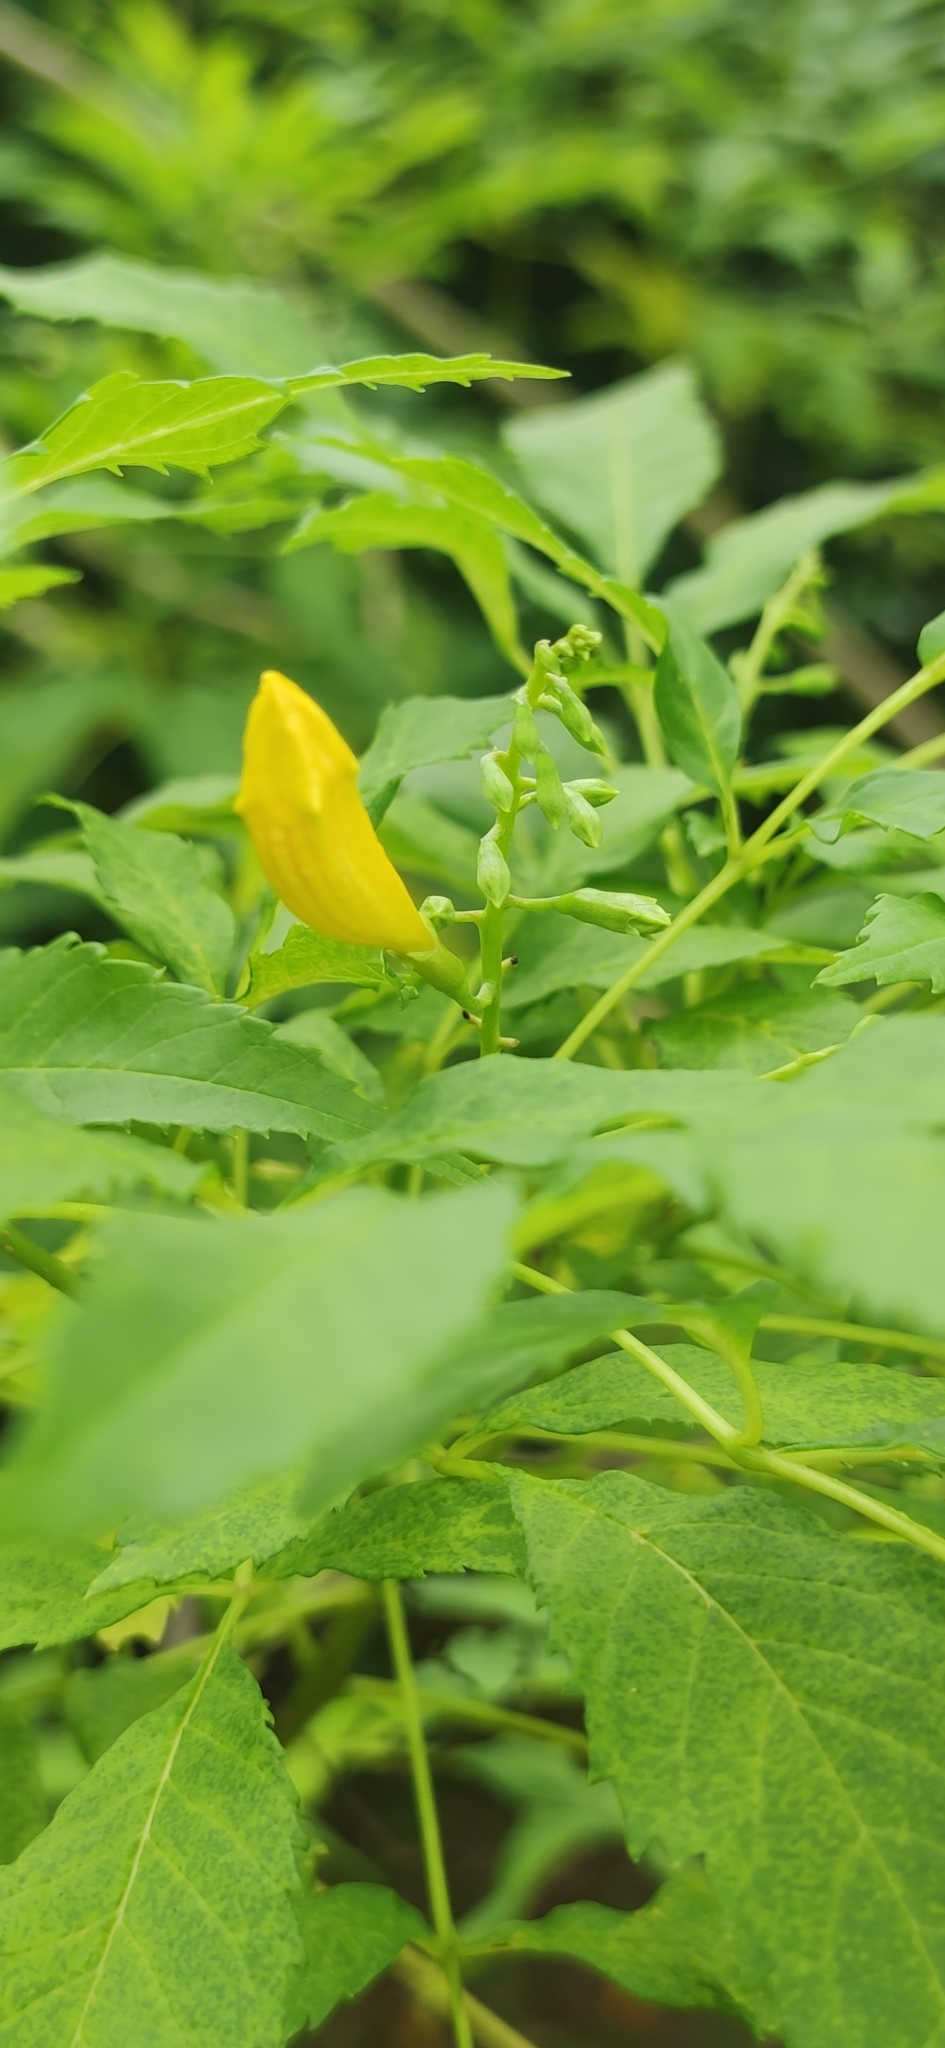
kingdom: Plantae
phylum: Tracheophyta
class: Magnoliopsida
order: Lamiales
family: Bignoniaceae
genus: Tecoma
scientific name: Tecoma stans
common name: Yellow trumpetbush
